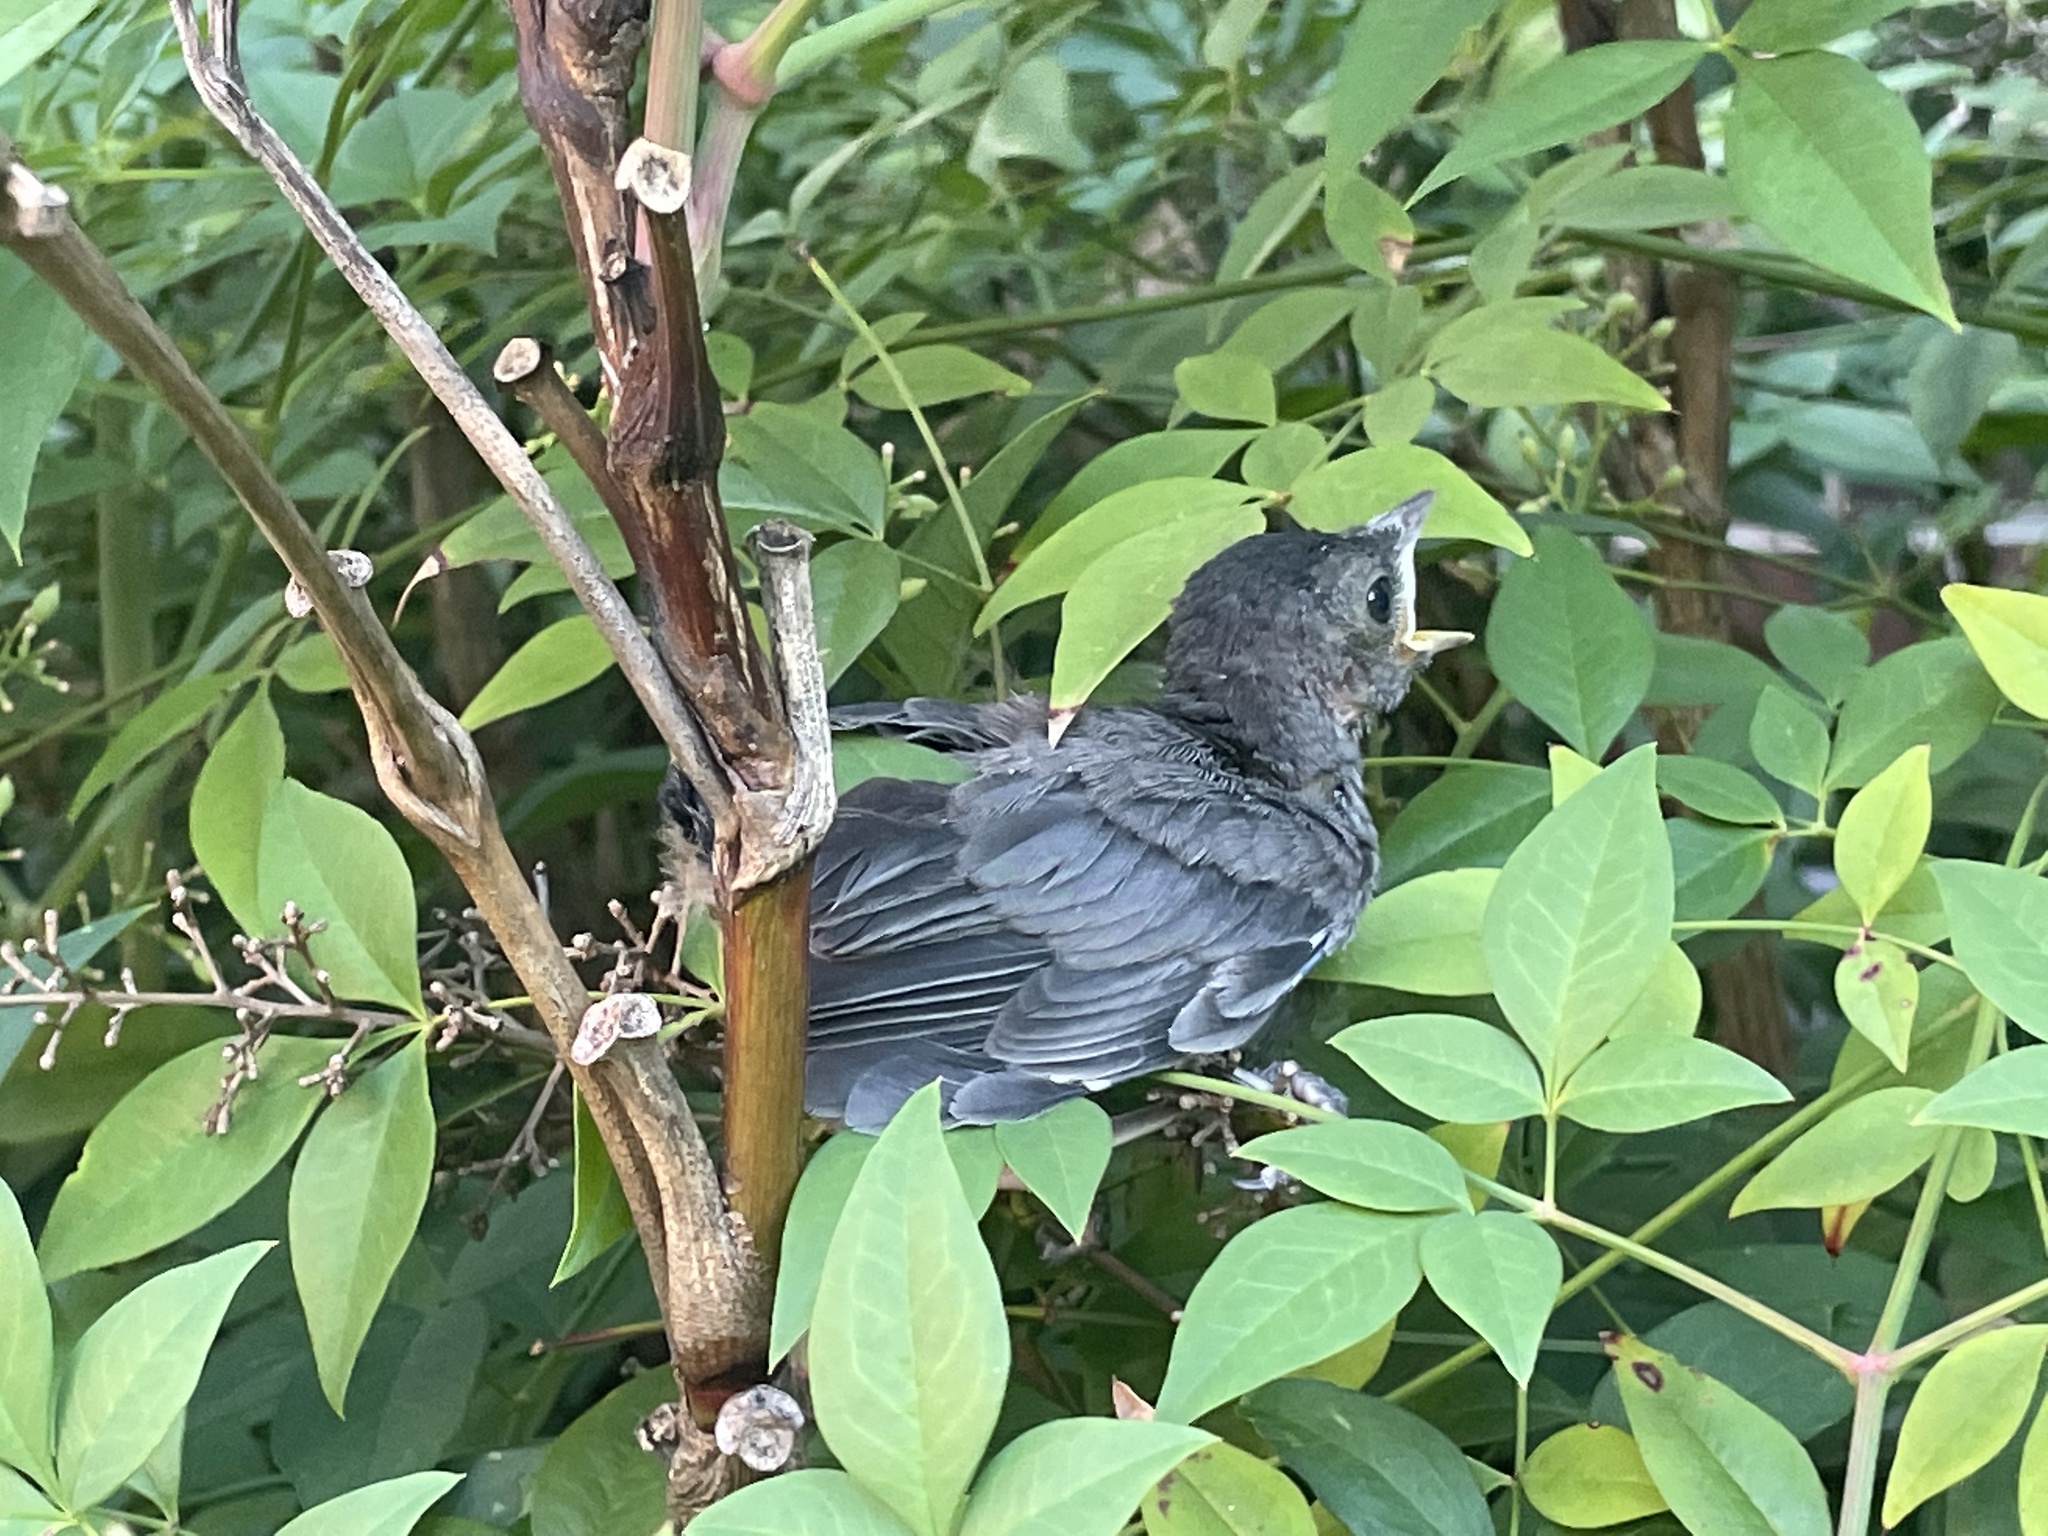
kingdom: Animalia
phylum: Chordata
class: Aves
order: Passeriformes
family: Mimidae
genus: Dumetella
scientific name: Dumetella carolinensis
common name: Gray catbird
